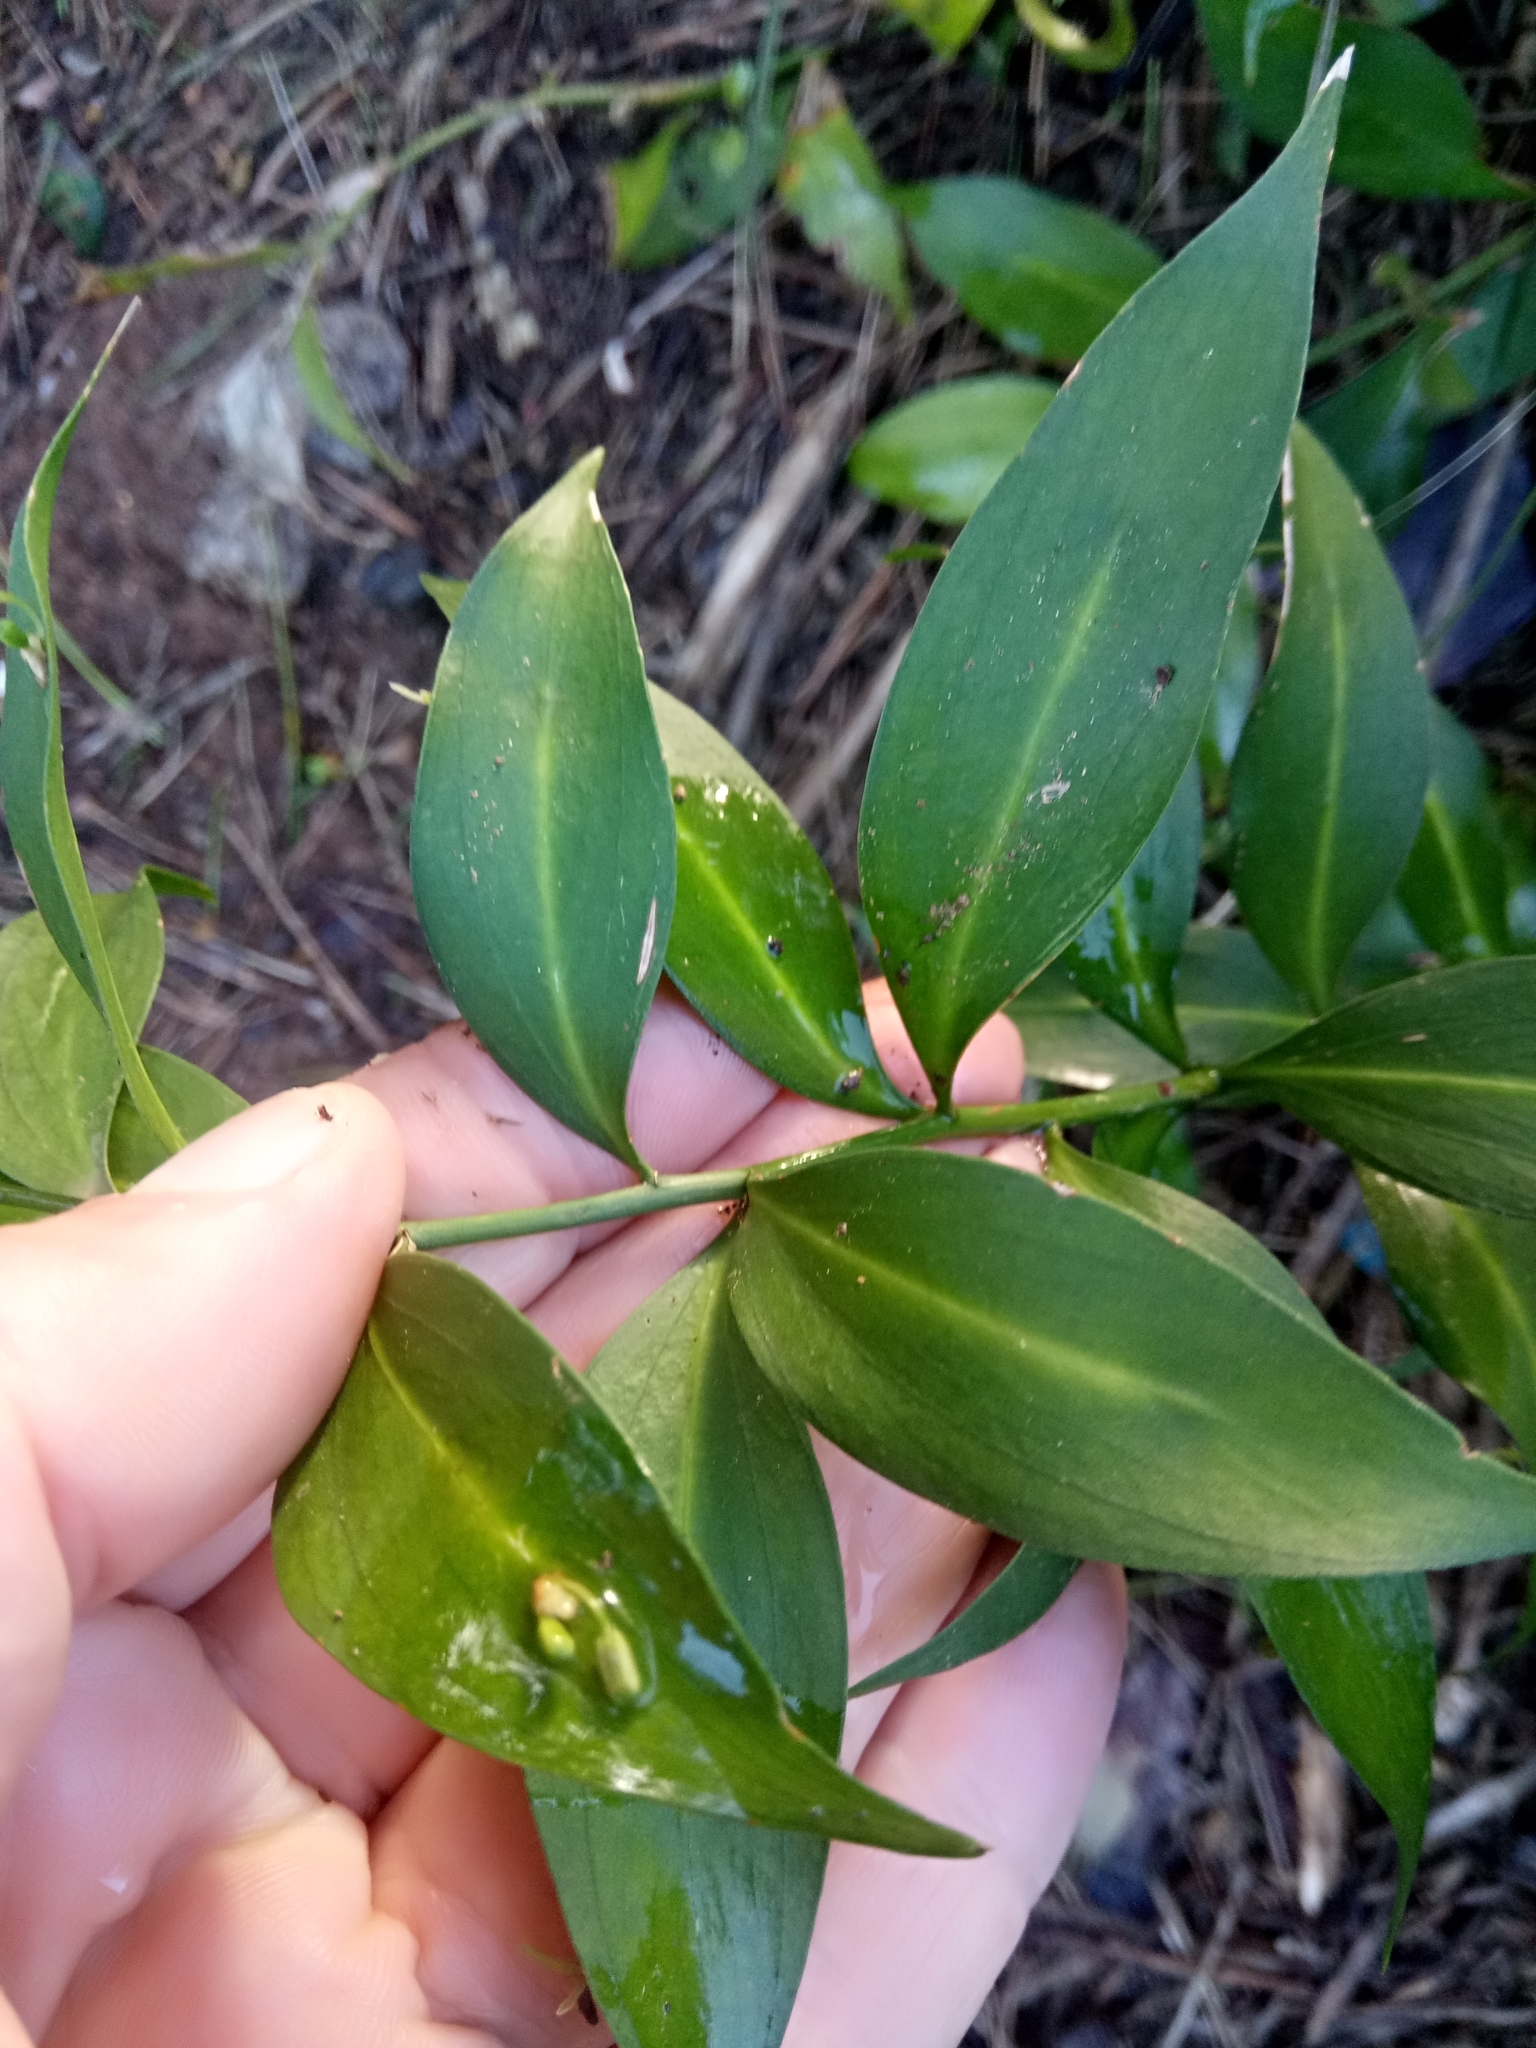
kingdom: Plantae
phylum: Tracheophyta
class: Liliopsida
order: Asparagales
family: Asparagaceae
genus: Ruscus
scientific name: Ruscus hypophyllum
